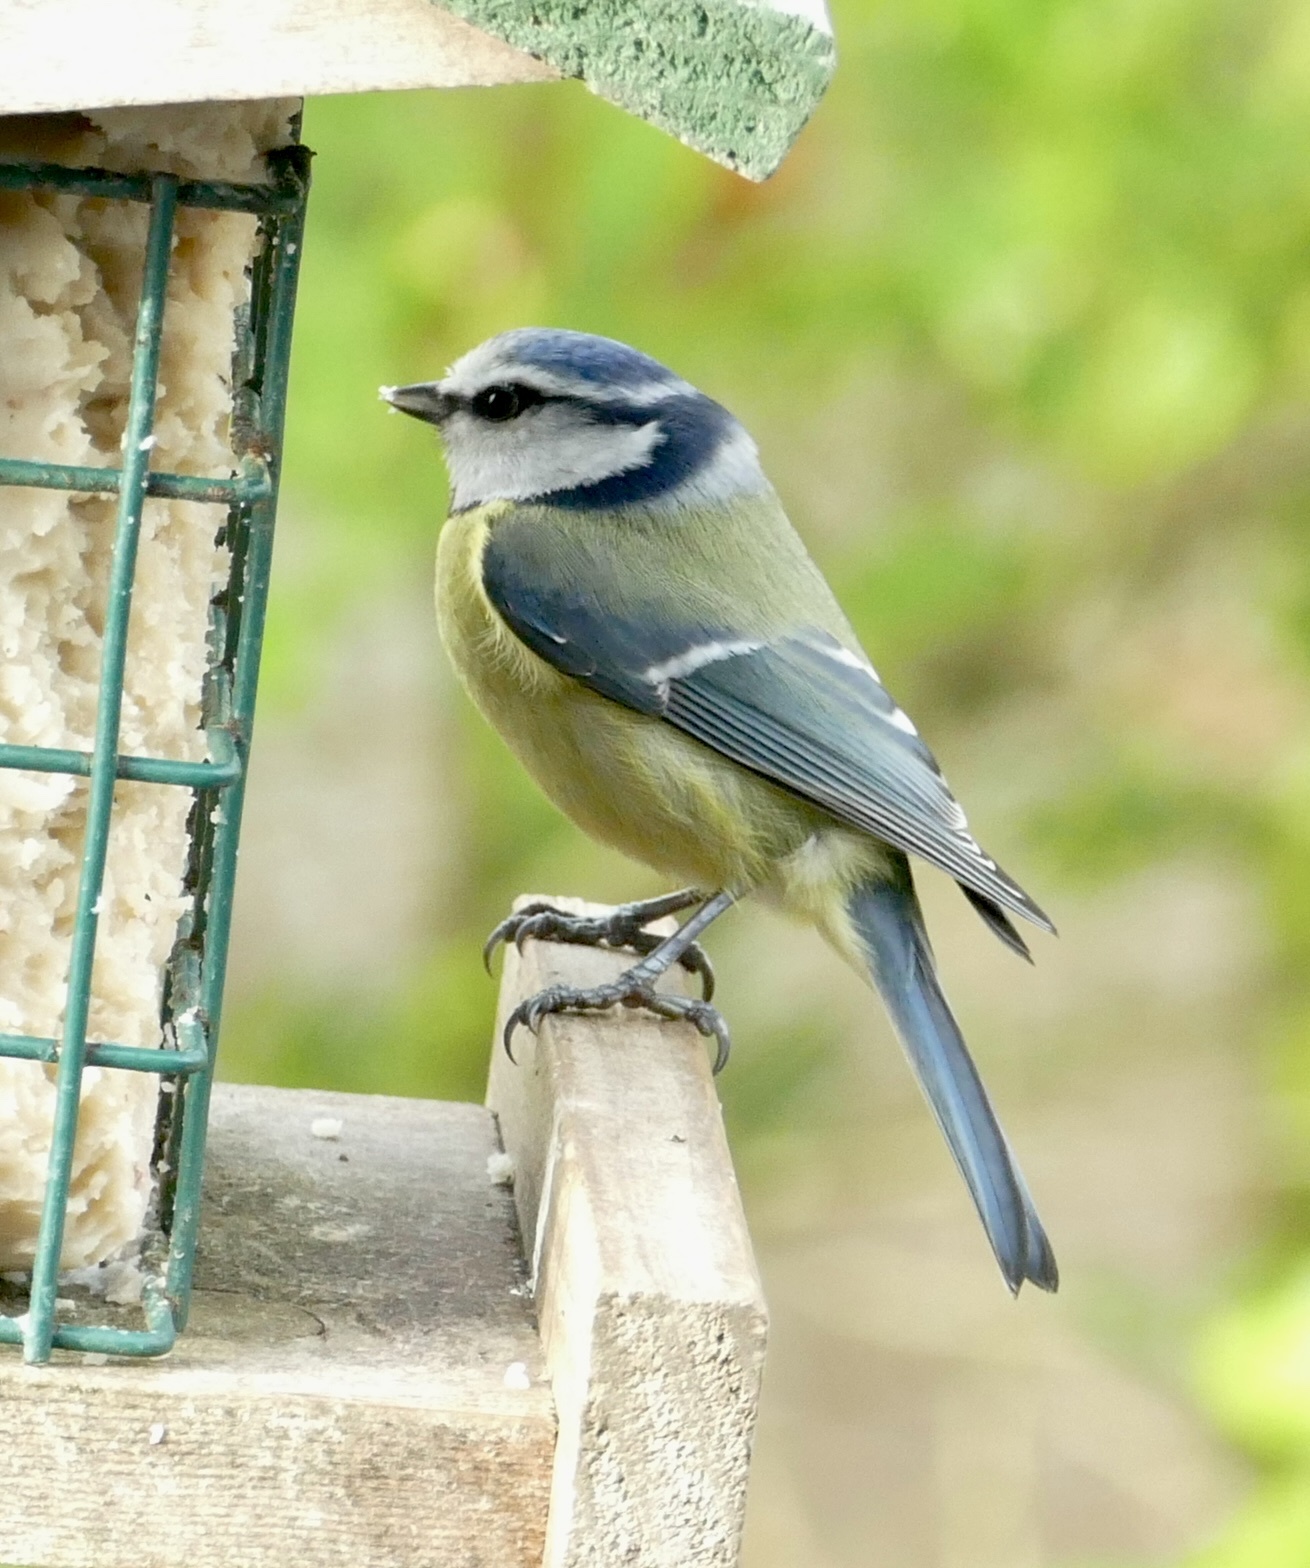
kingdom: Animalia
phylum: Chordata
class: Aves
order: Passeriformes
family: Paridae
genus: Cyanistes
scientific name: Cyanistes caeruleus
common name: Eurasian blue tit
